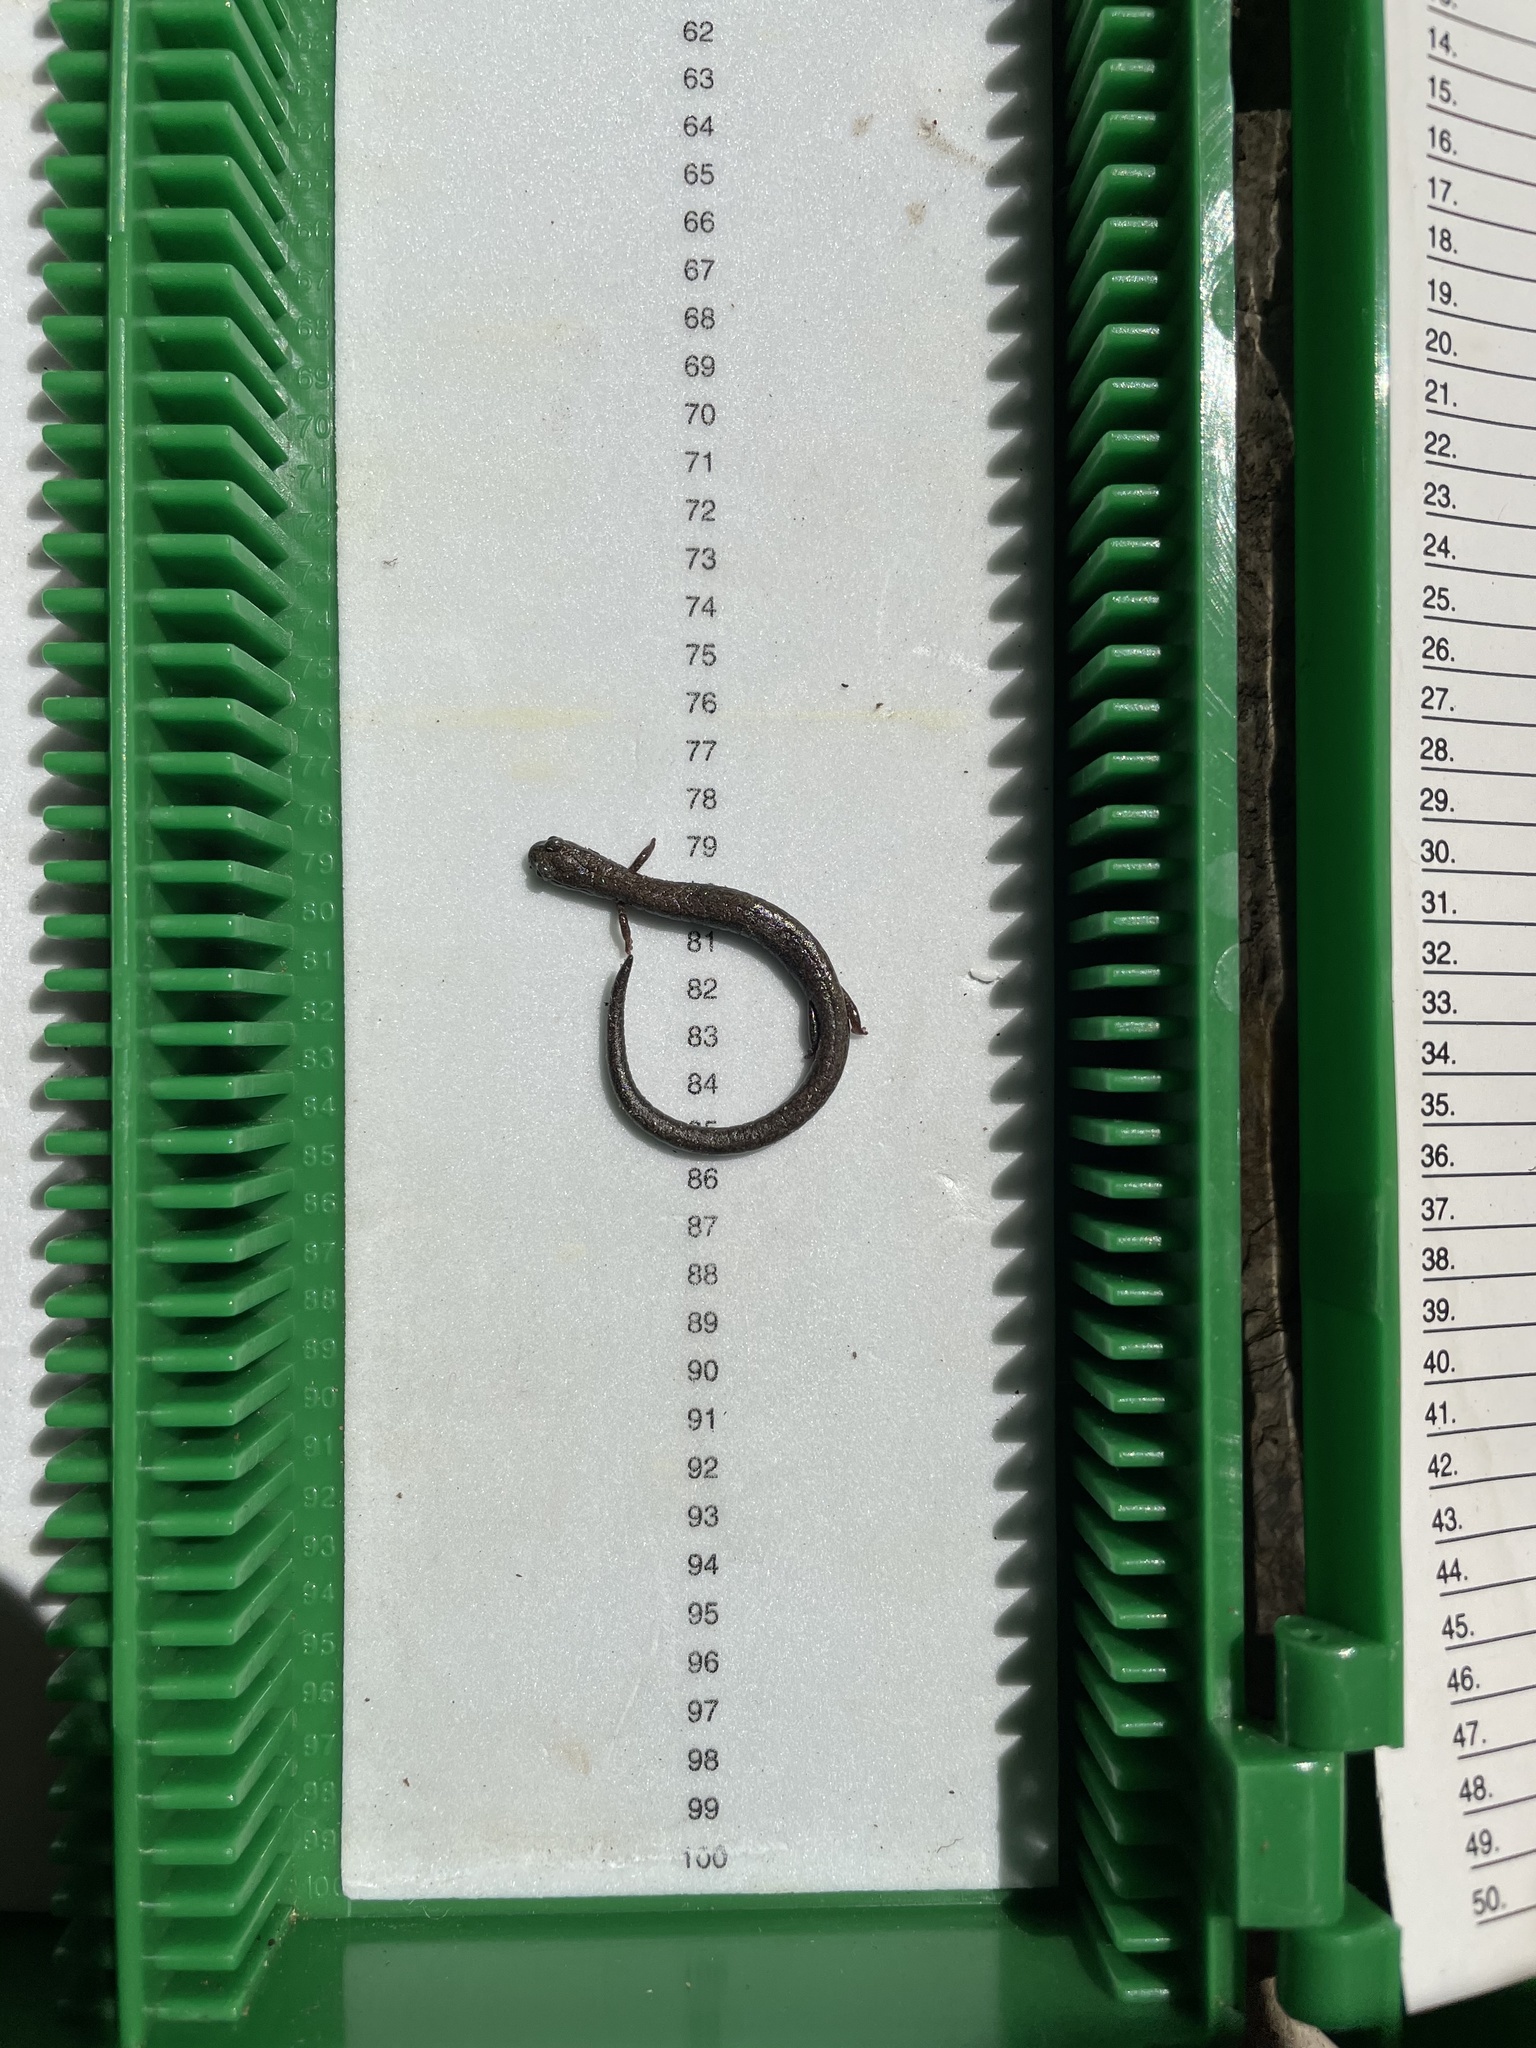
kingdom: Animalia
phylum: Chordata
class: Amphibia
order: Caudata
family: Plethodontidae
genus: Batrachoseps
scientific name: Batrachoseps major
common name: Garden slender salamander
